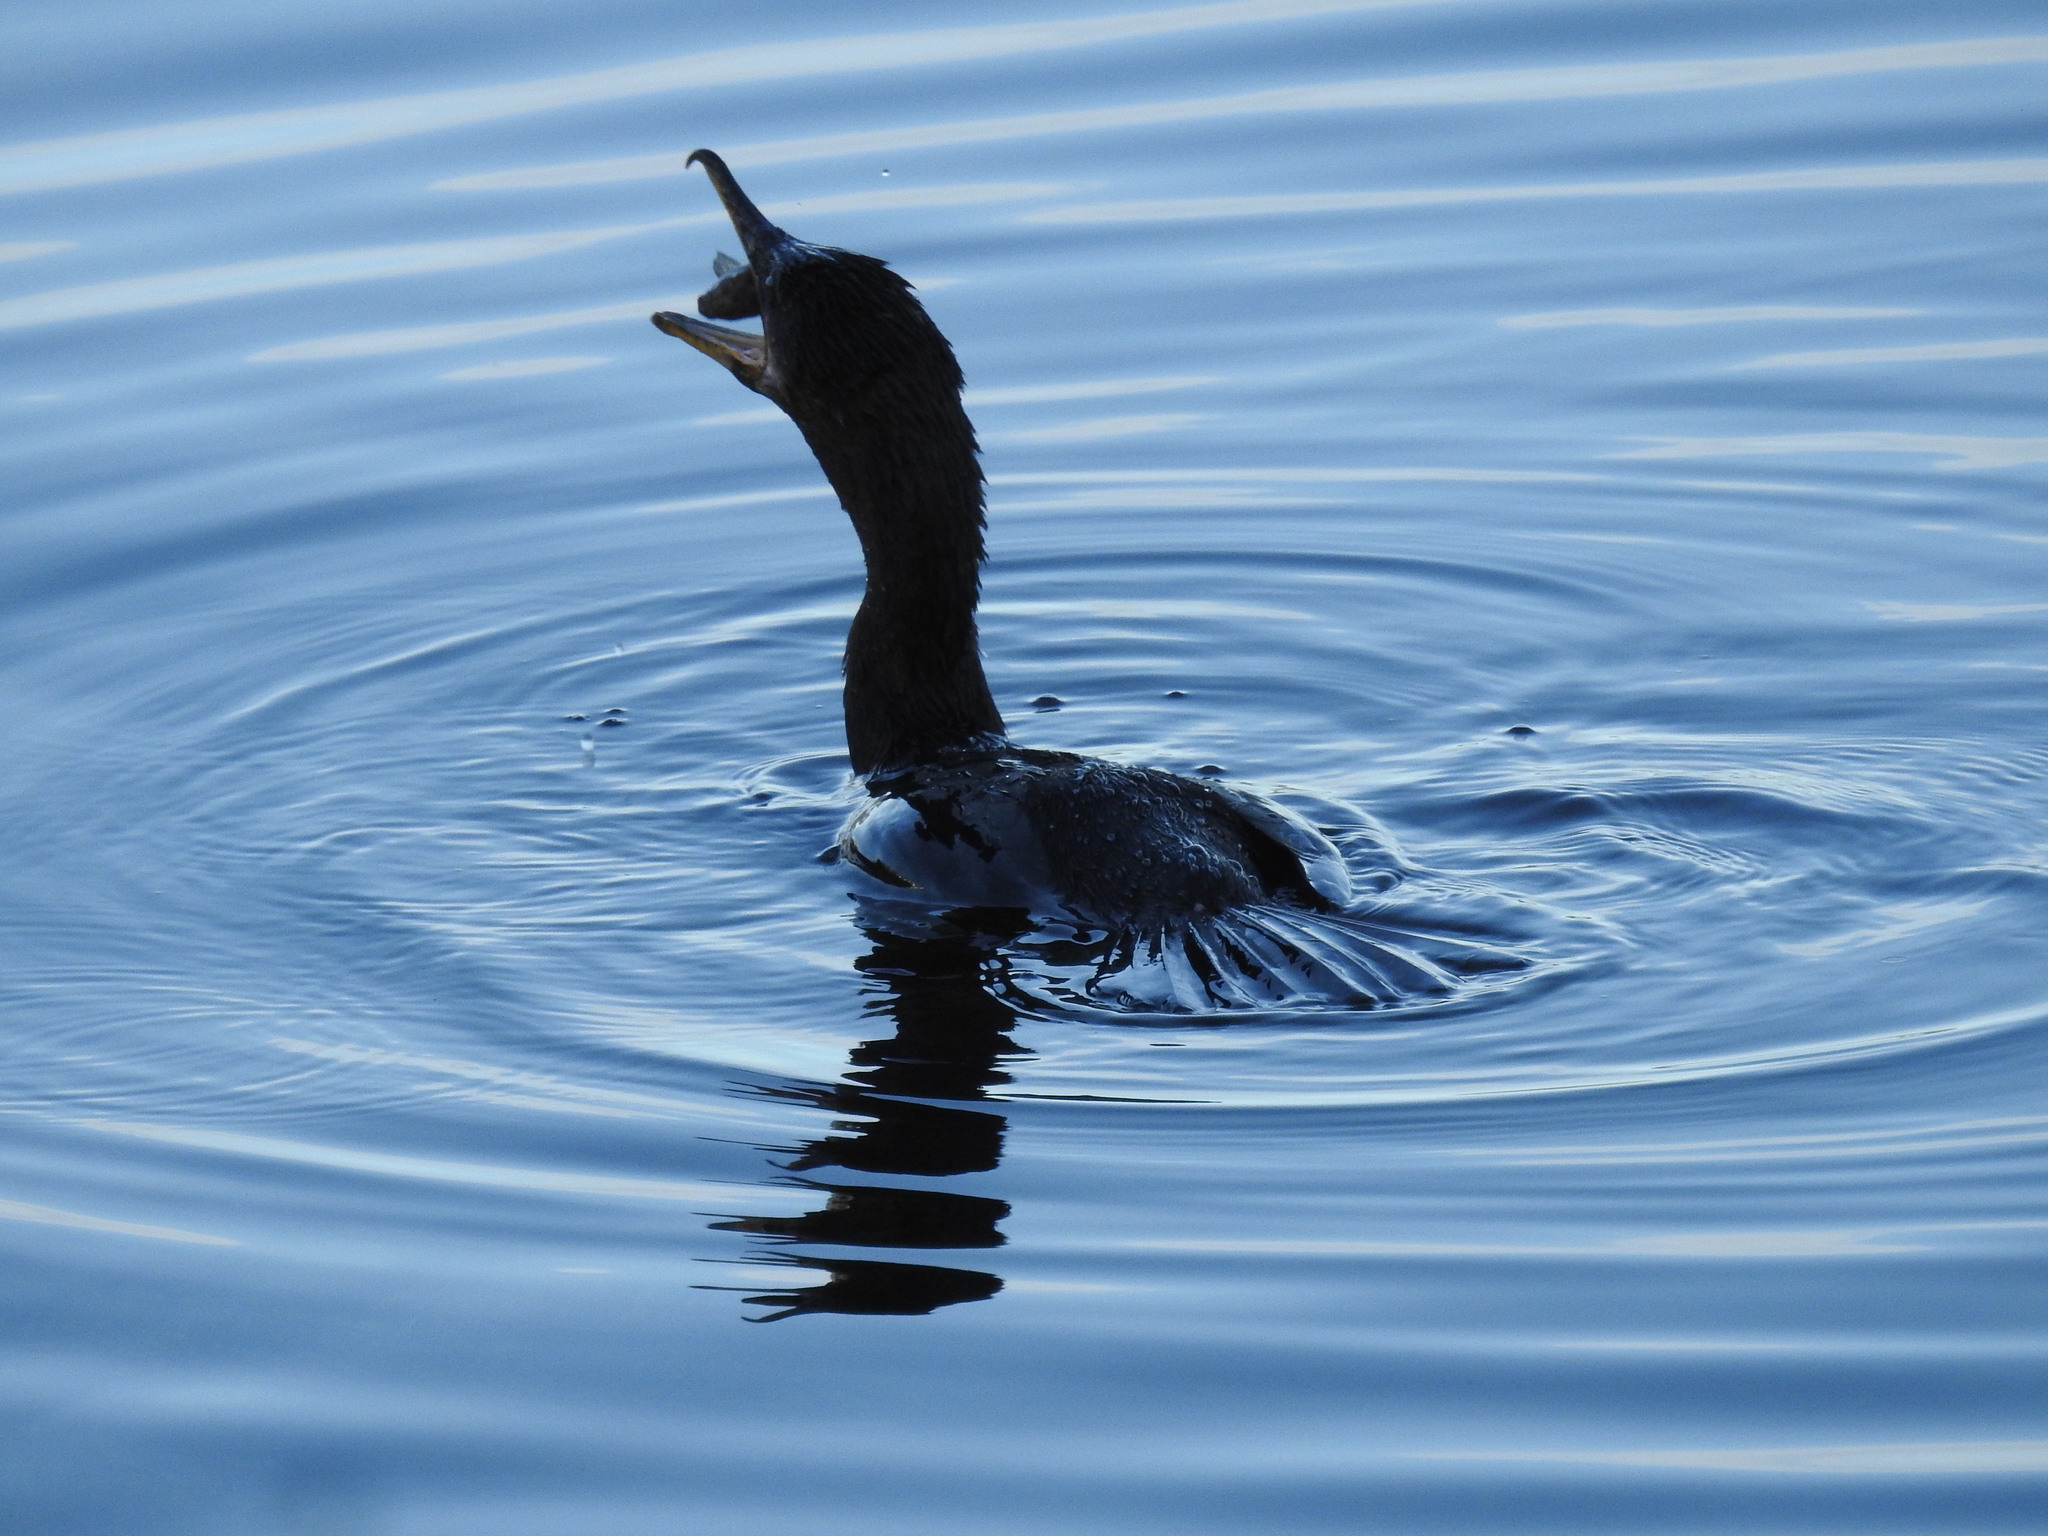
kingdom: Animalia
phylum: Chordata
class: Aves
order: Suliformes
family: Phalacrocoracidae
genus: Phalacrocorax
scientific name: Phalacrocorax brasilianus
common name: Neotropic cormorant
